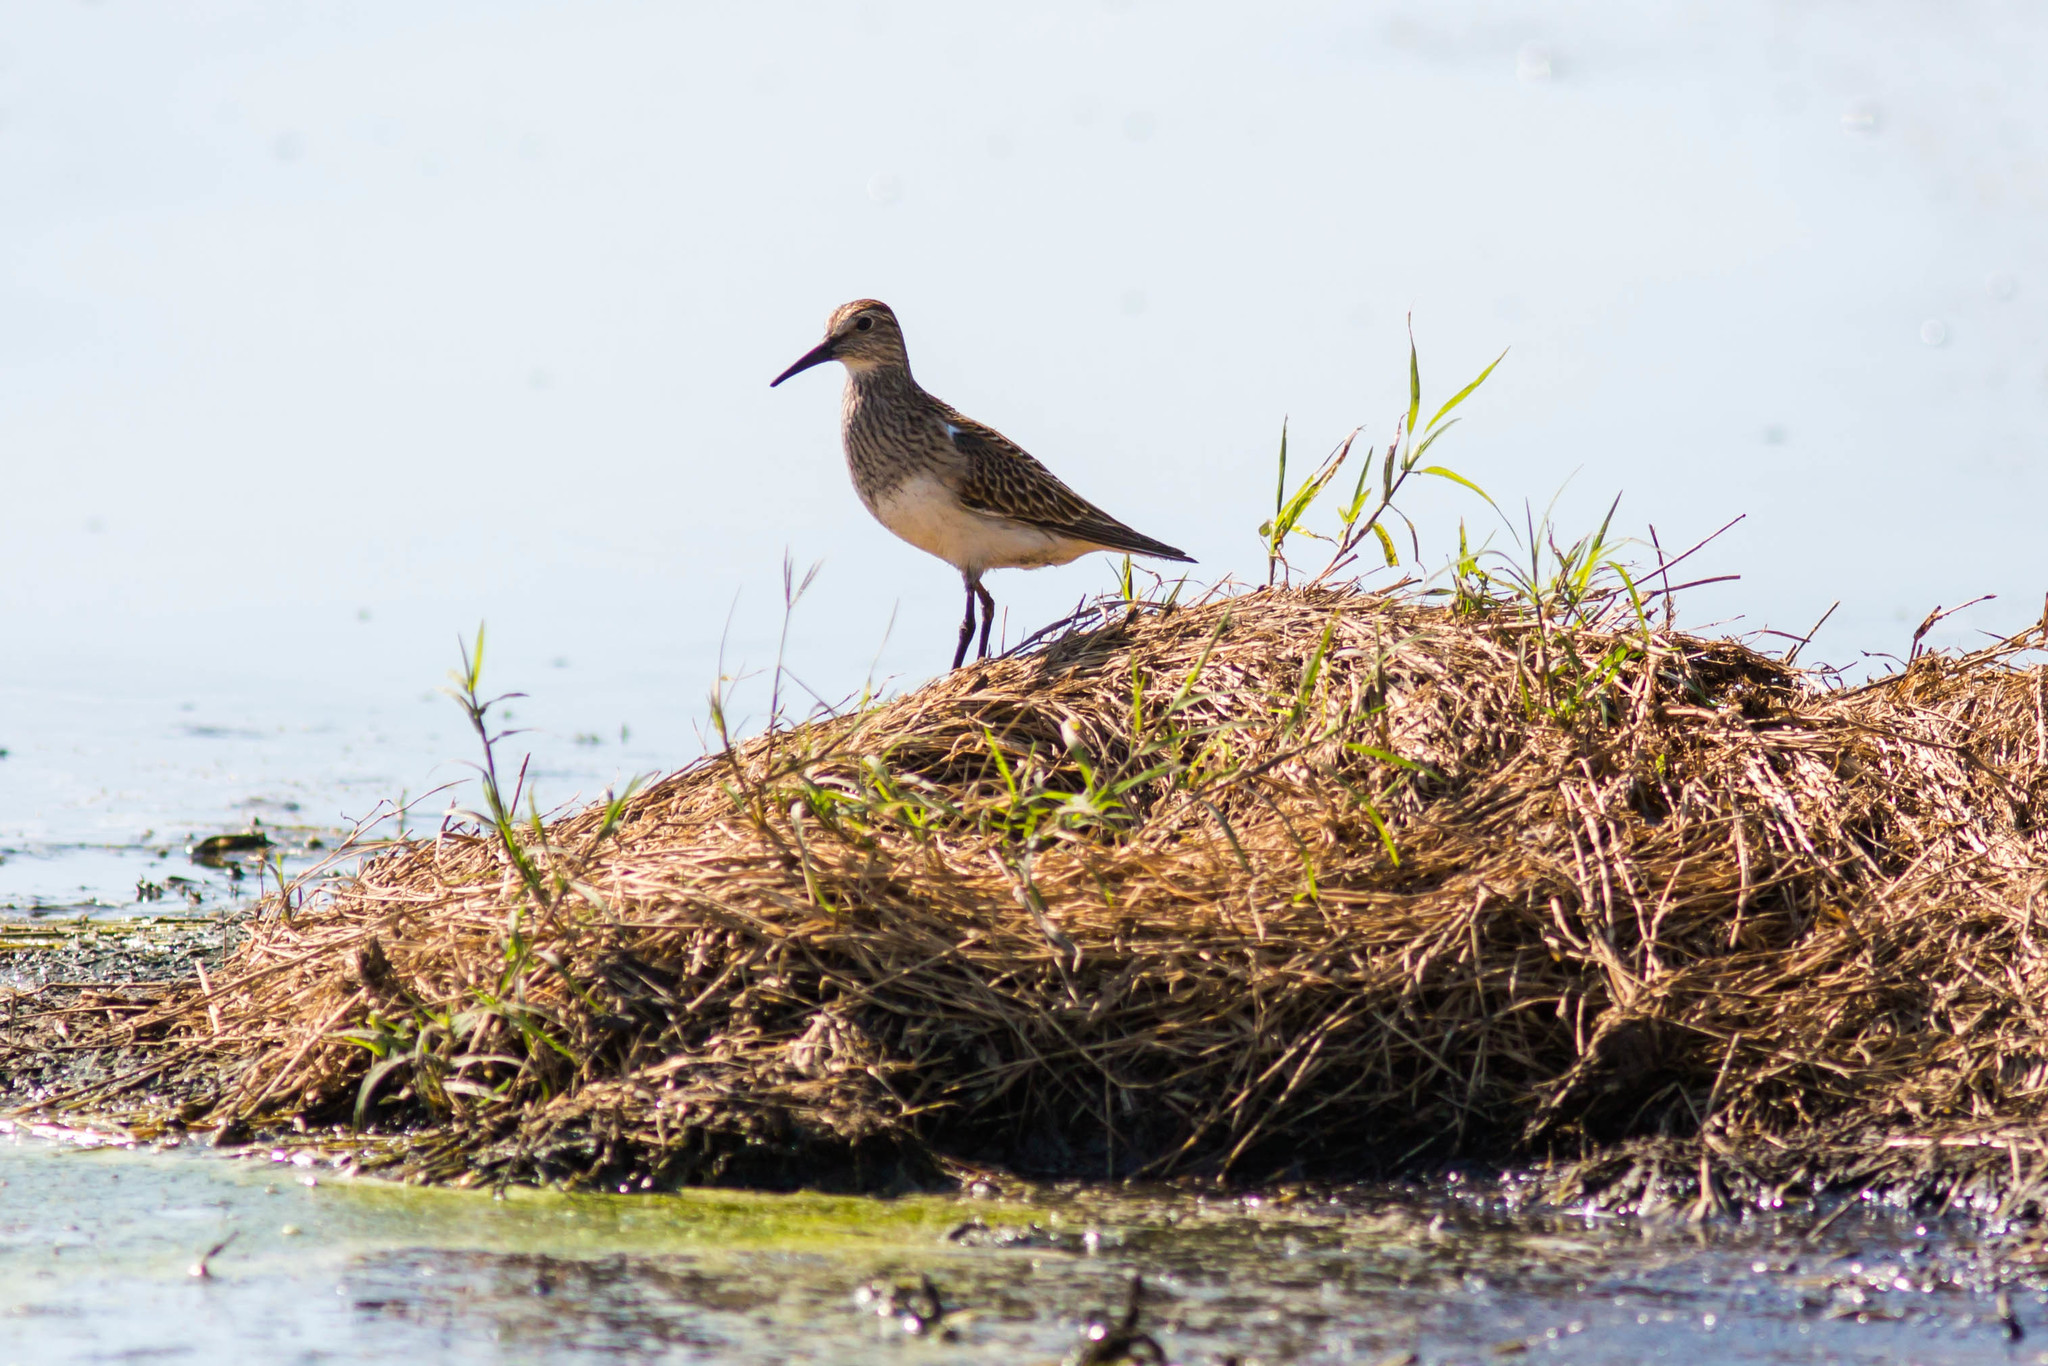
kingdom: Animalia
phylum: Chordata
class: Aves
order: Charadriiformes
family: Scolopacidae
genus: Calidris
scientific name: Calidris melanotos
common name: Pectoral sandpiper
